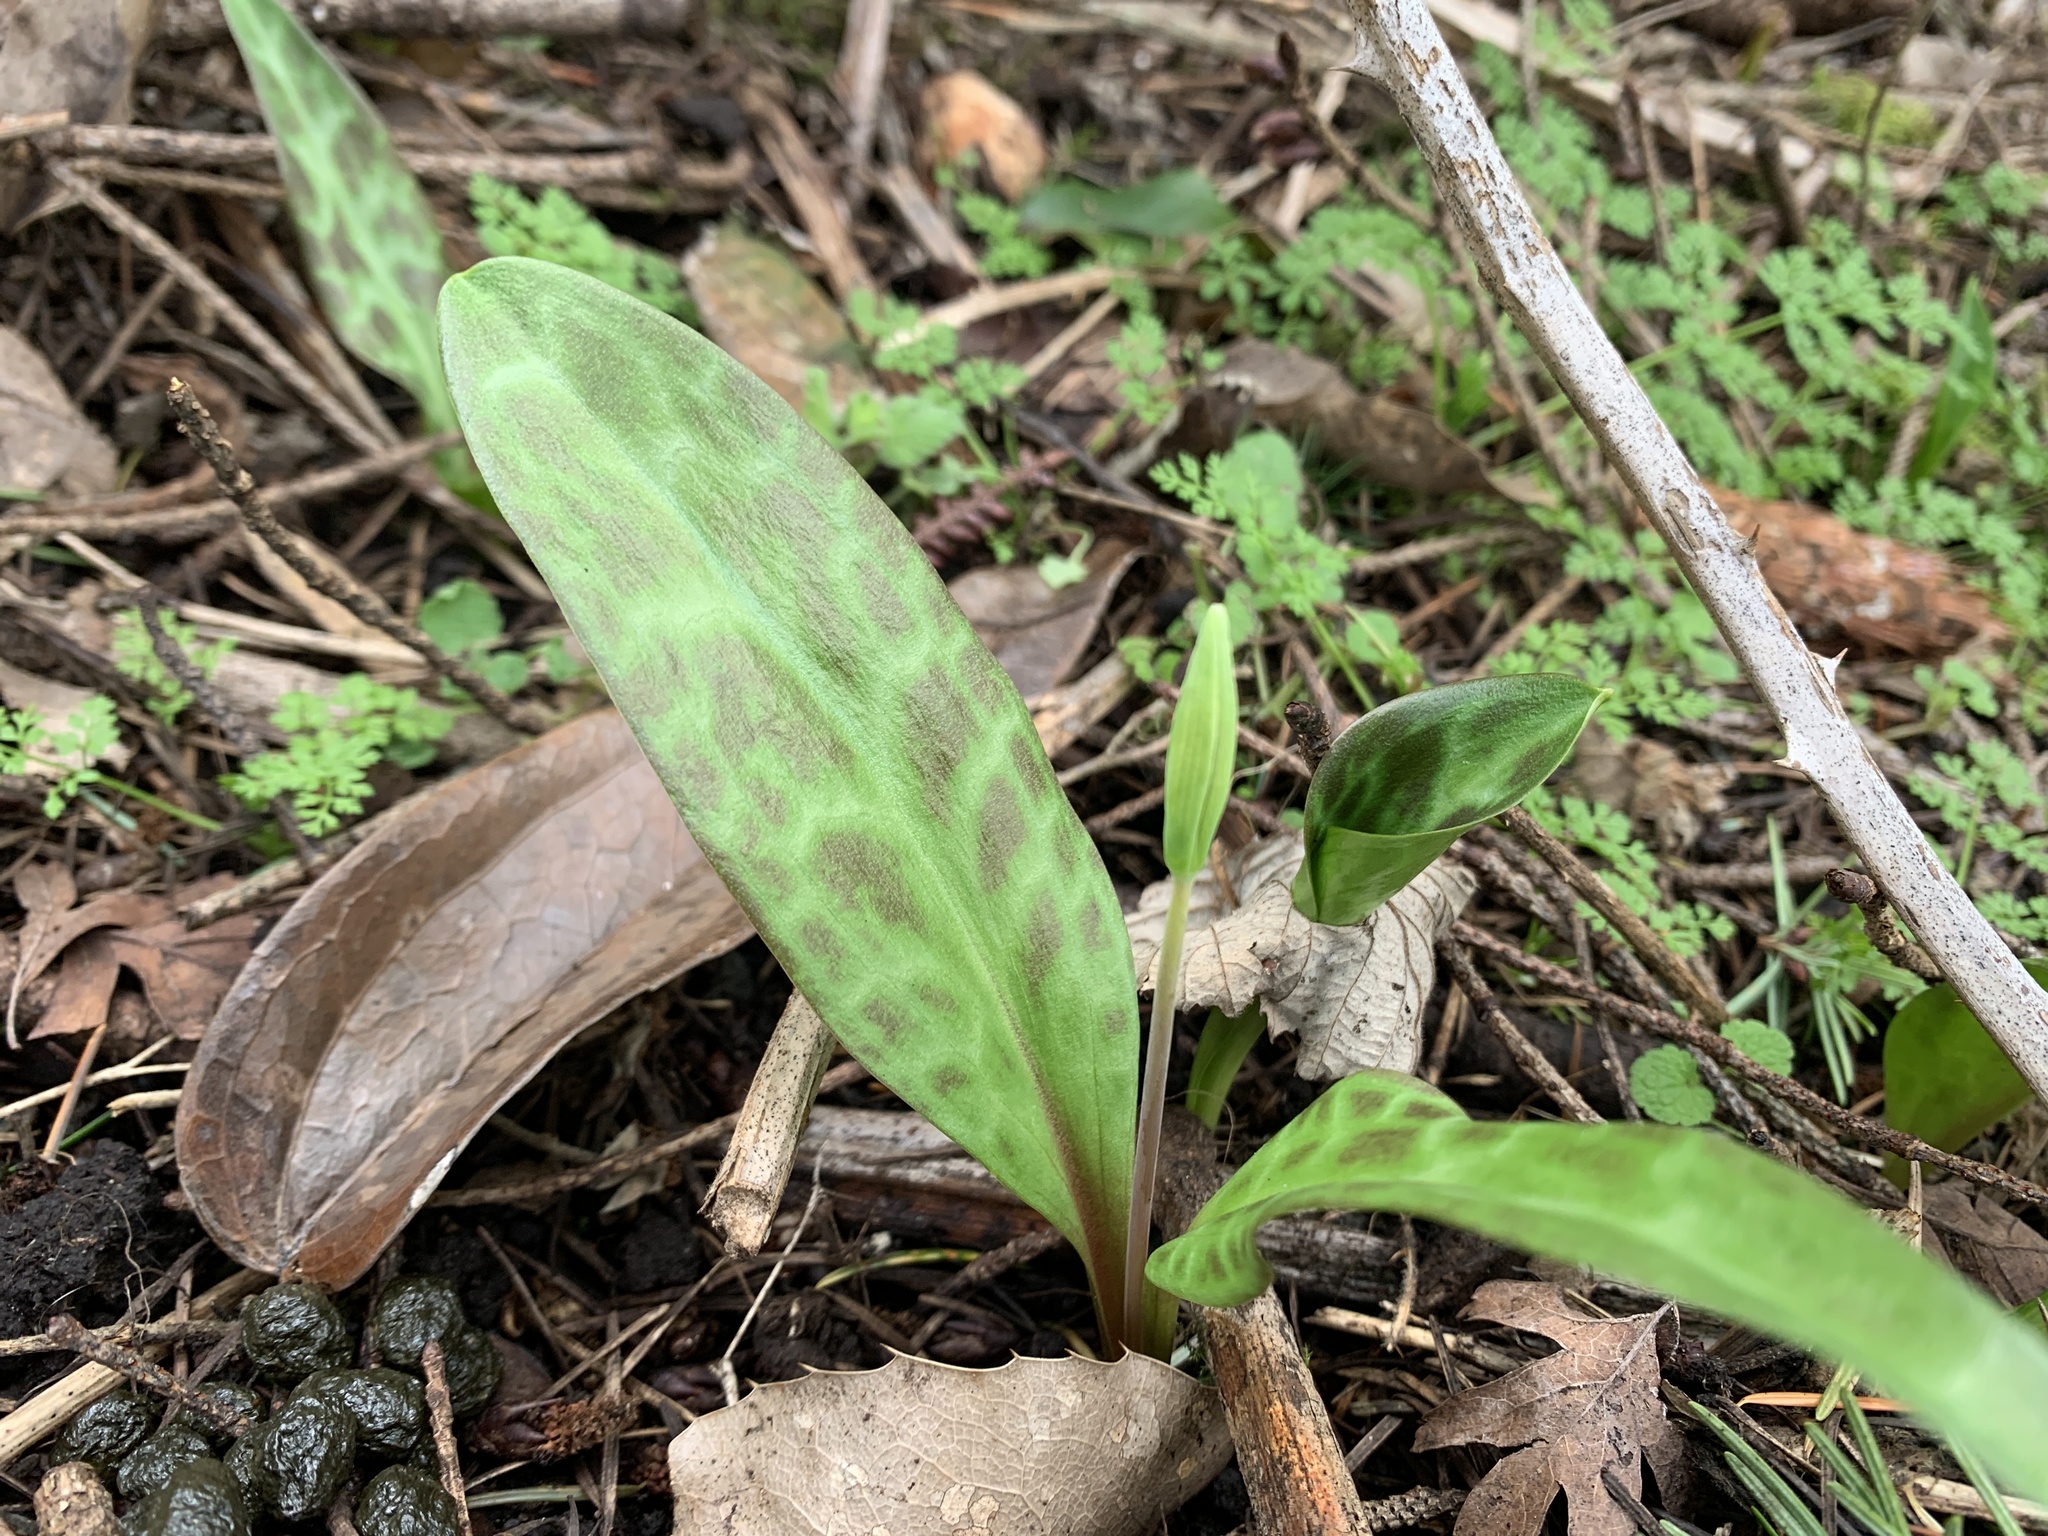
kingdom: Plantae
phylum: Tracheophyta
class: Liliopsida
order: Liliales
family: Liliaceae
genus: Erythronium
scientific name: Erythronium oregonum
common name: Giant adder's-tongue
